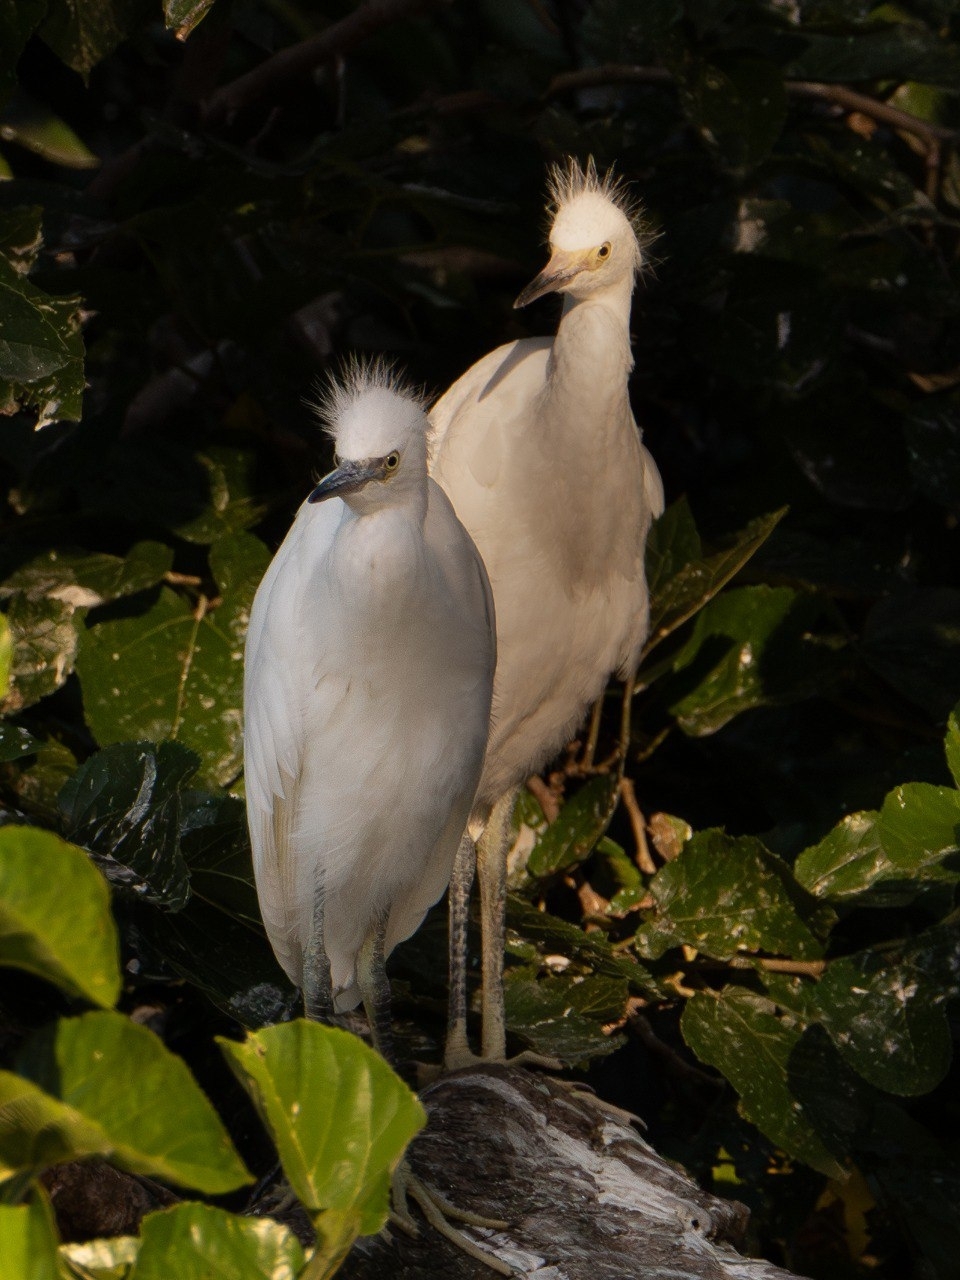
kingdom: Animalia
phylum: Chordata
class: Aves
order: Pelecaniformes
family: Ardeidae
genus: Egretta
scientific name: Egretta thula
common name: Snowy egret
